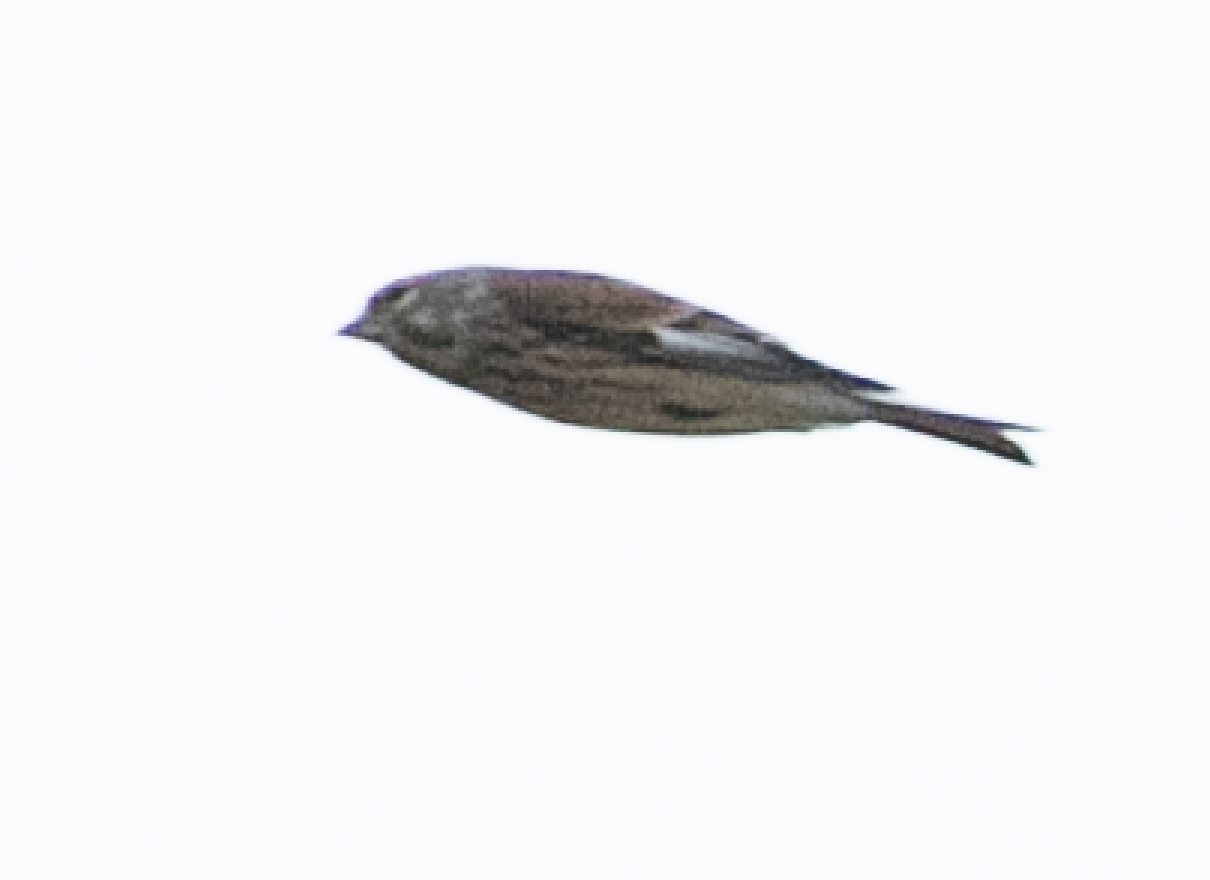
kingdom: Animalia
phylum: Chordata
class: Aves
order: Passeriformes
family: Fringillidae
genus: Linaria
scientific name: Linaria cannabina
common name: Common linnet
